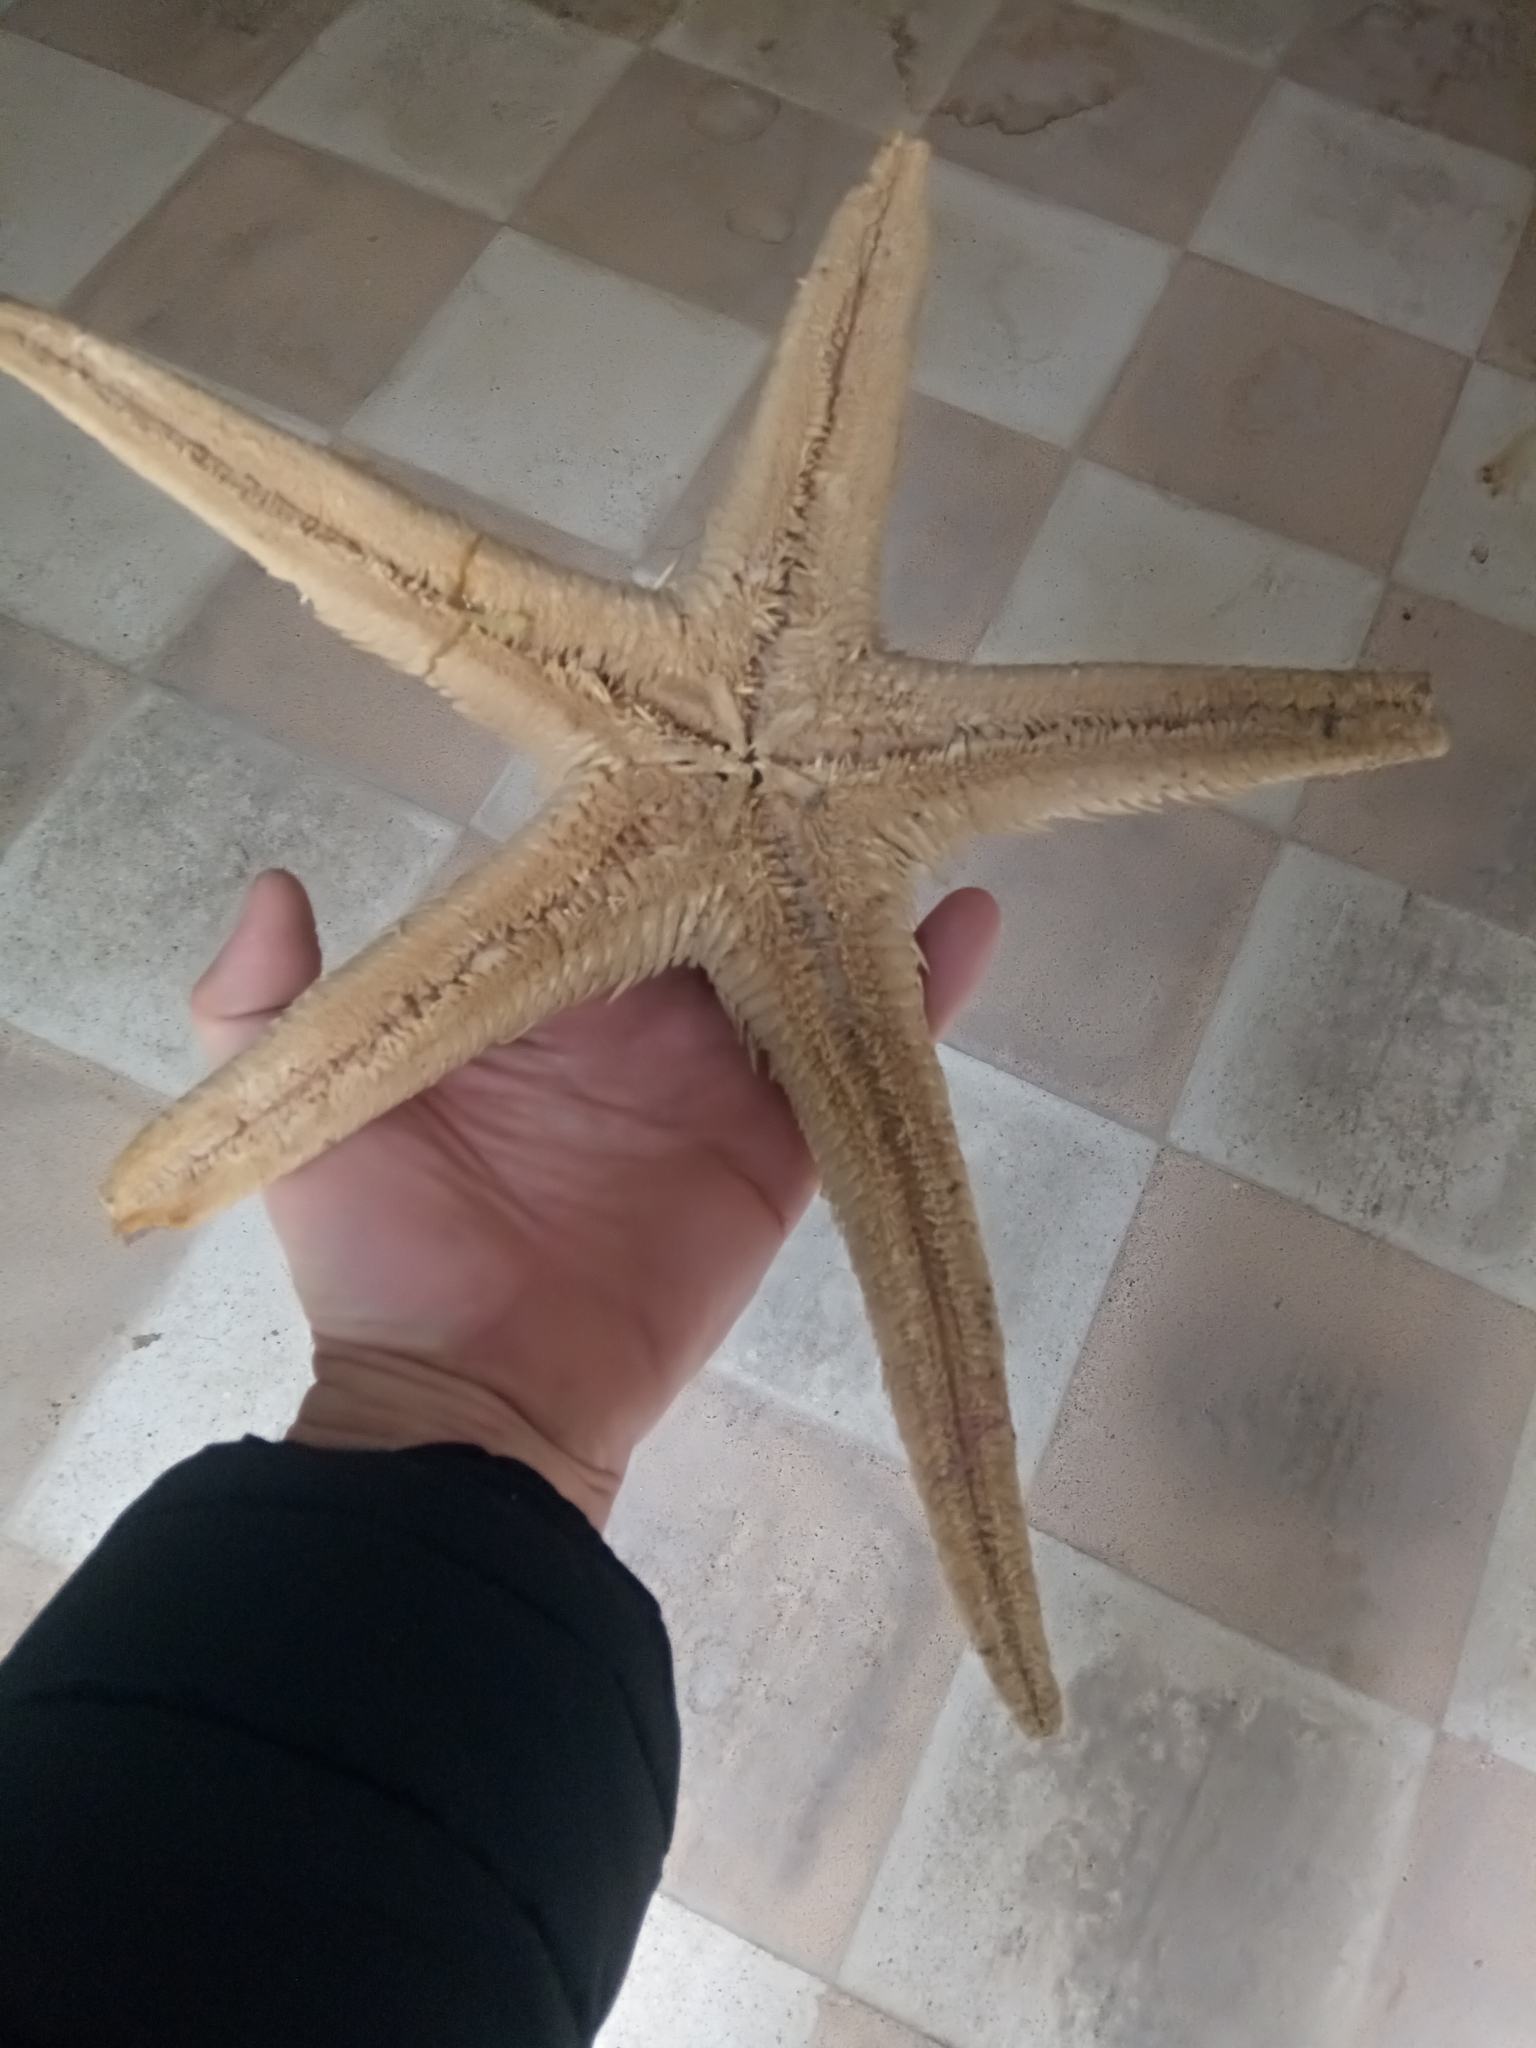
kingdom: Animalia
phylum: Echinodermata
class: Asteroidea
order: Paxillosida
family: Astropectinidae
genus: Astropecten
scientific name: Astropecten aranciacus
